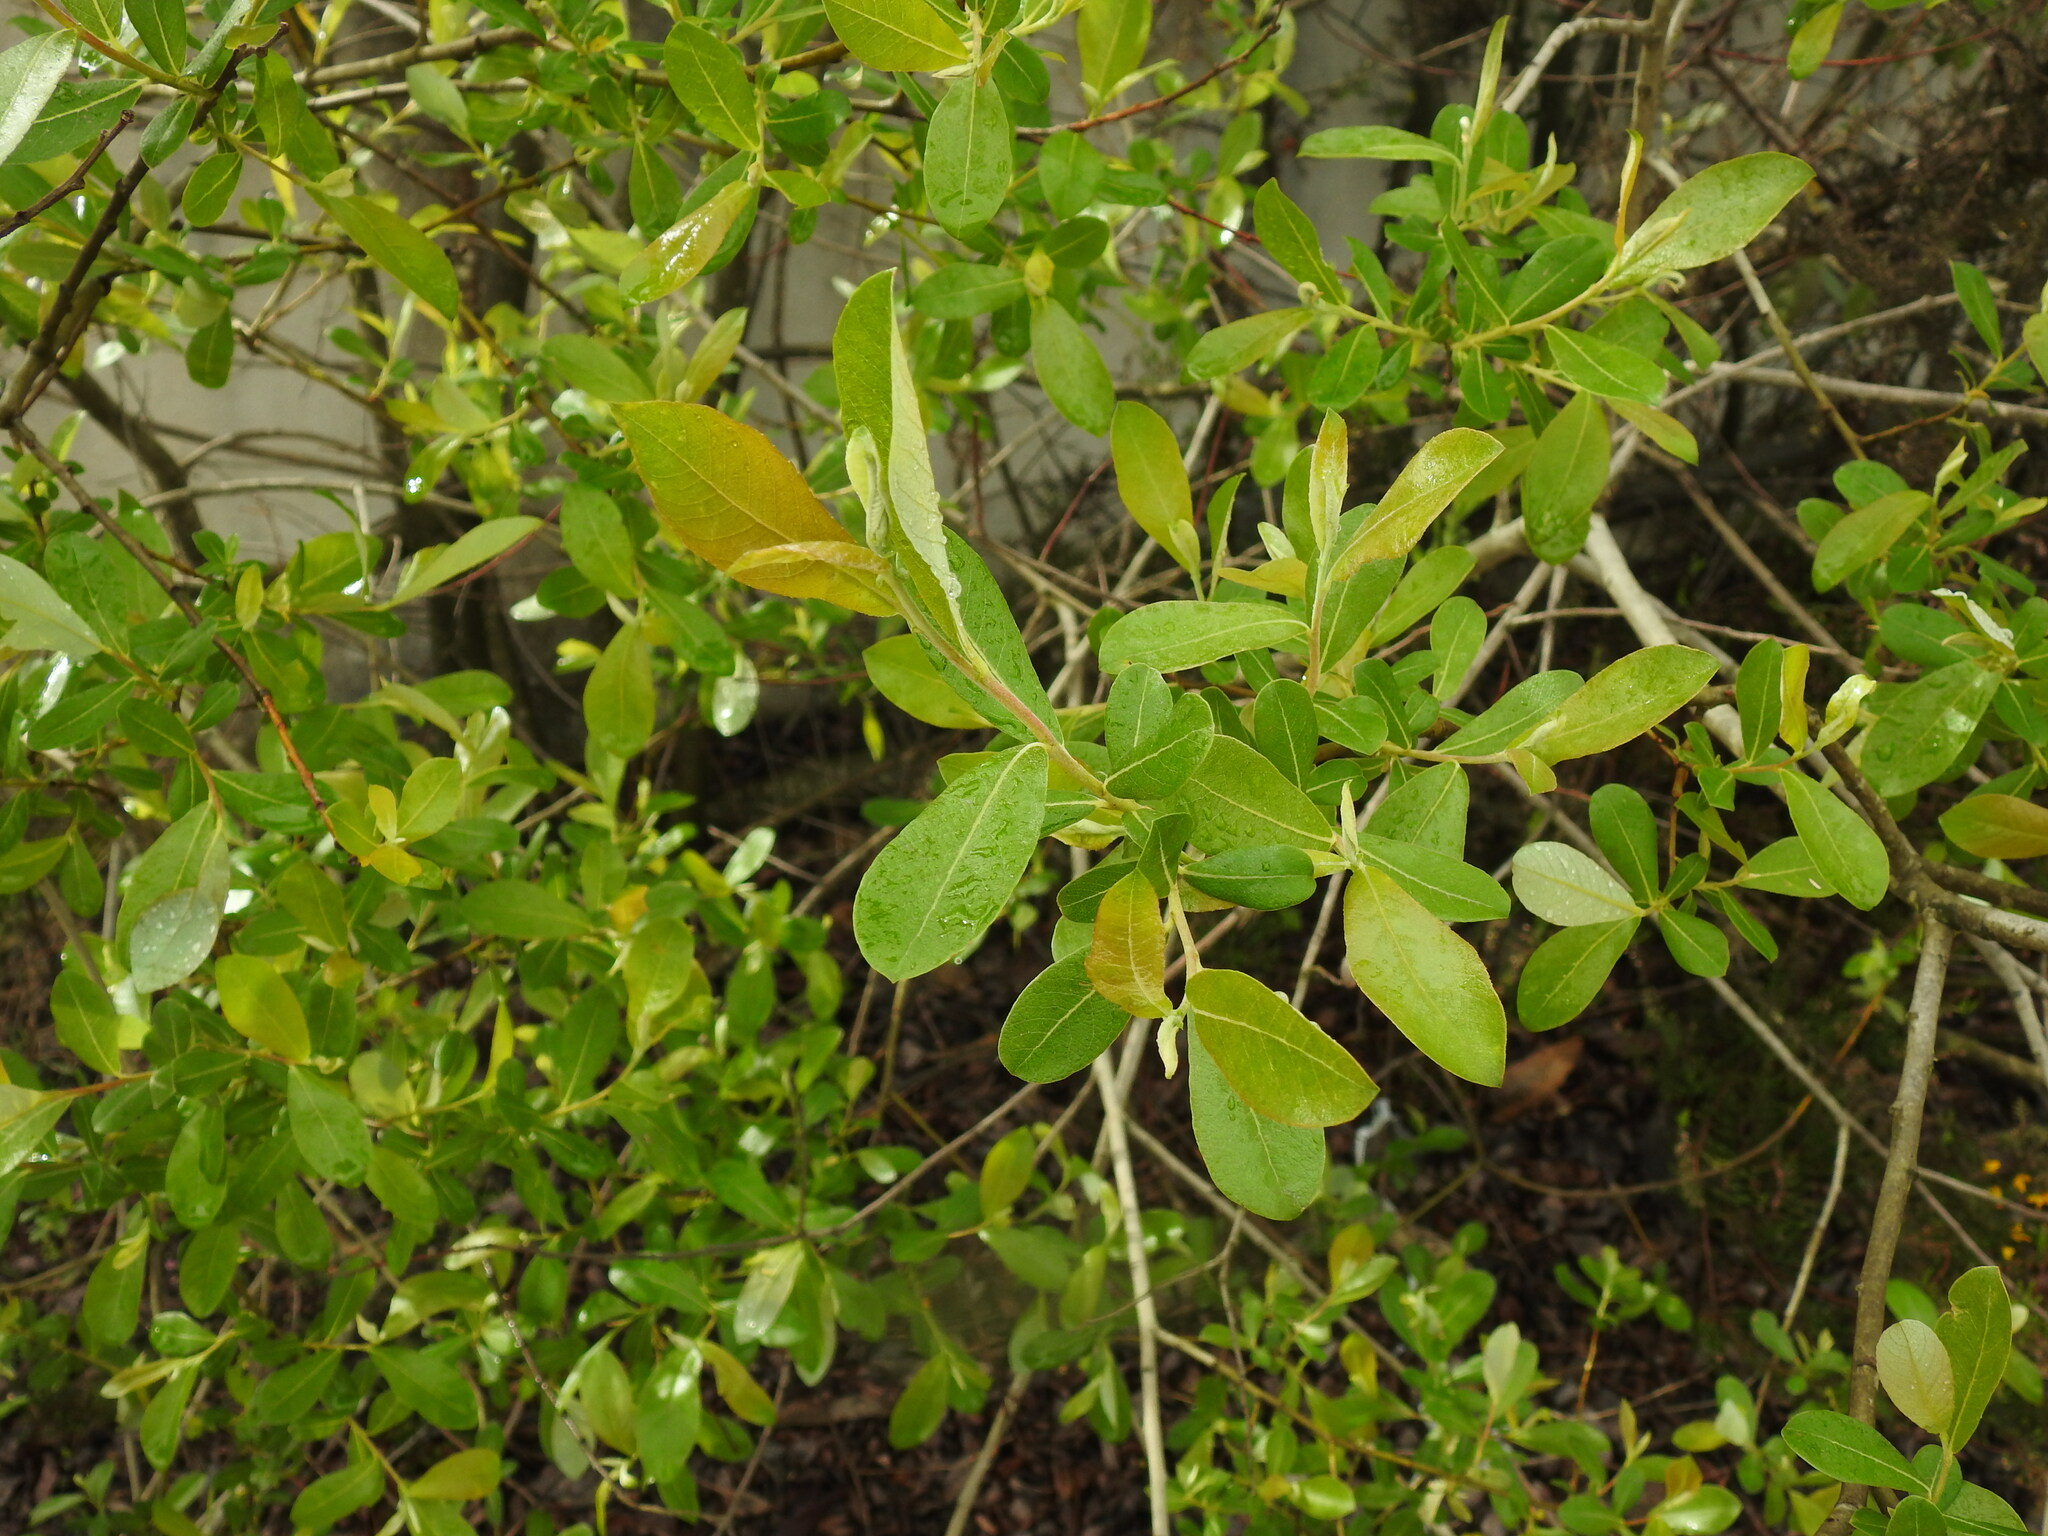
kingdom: Plantae
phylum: Tracheophyta
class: Magnoliopsida
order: Malpighiales
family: Salicaceae
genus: Salix
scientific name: Salix atrocinerea
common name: Rusty willow
